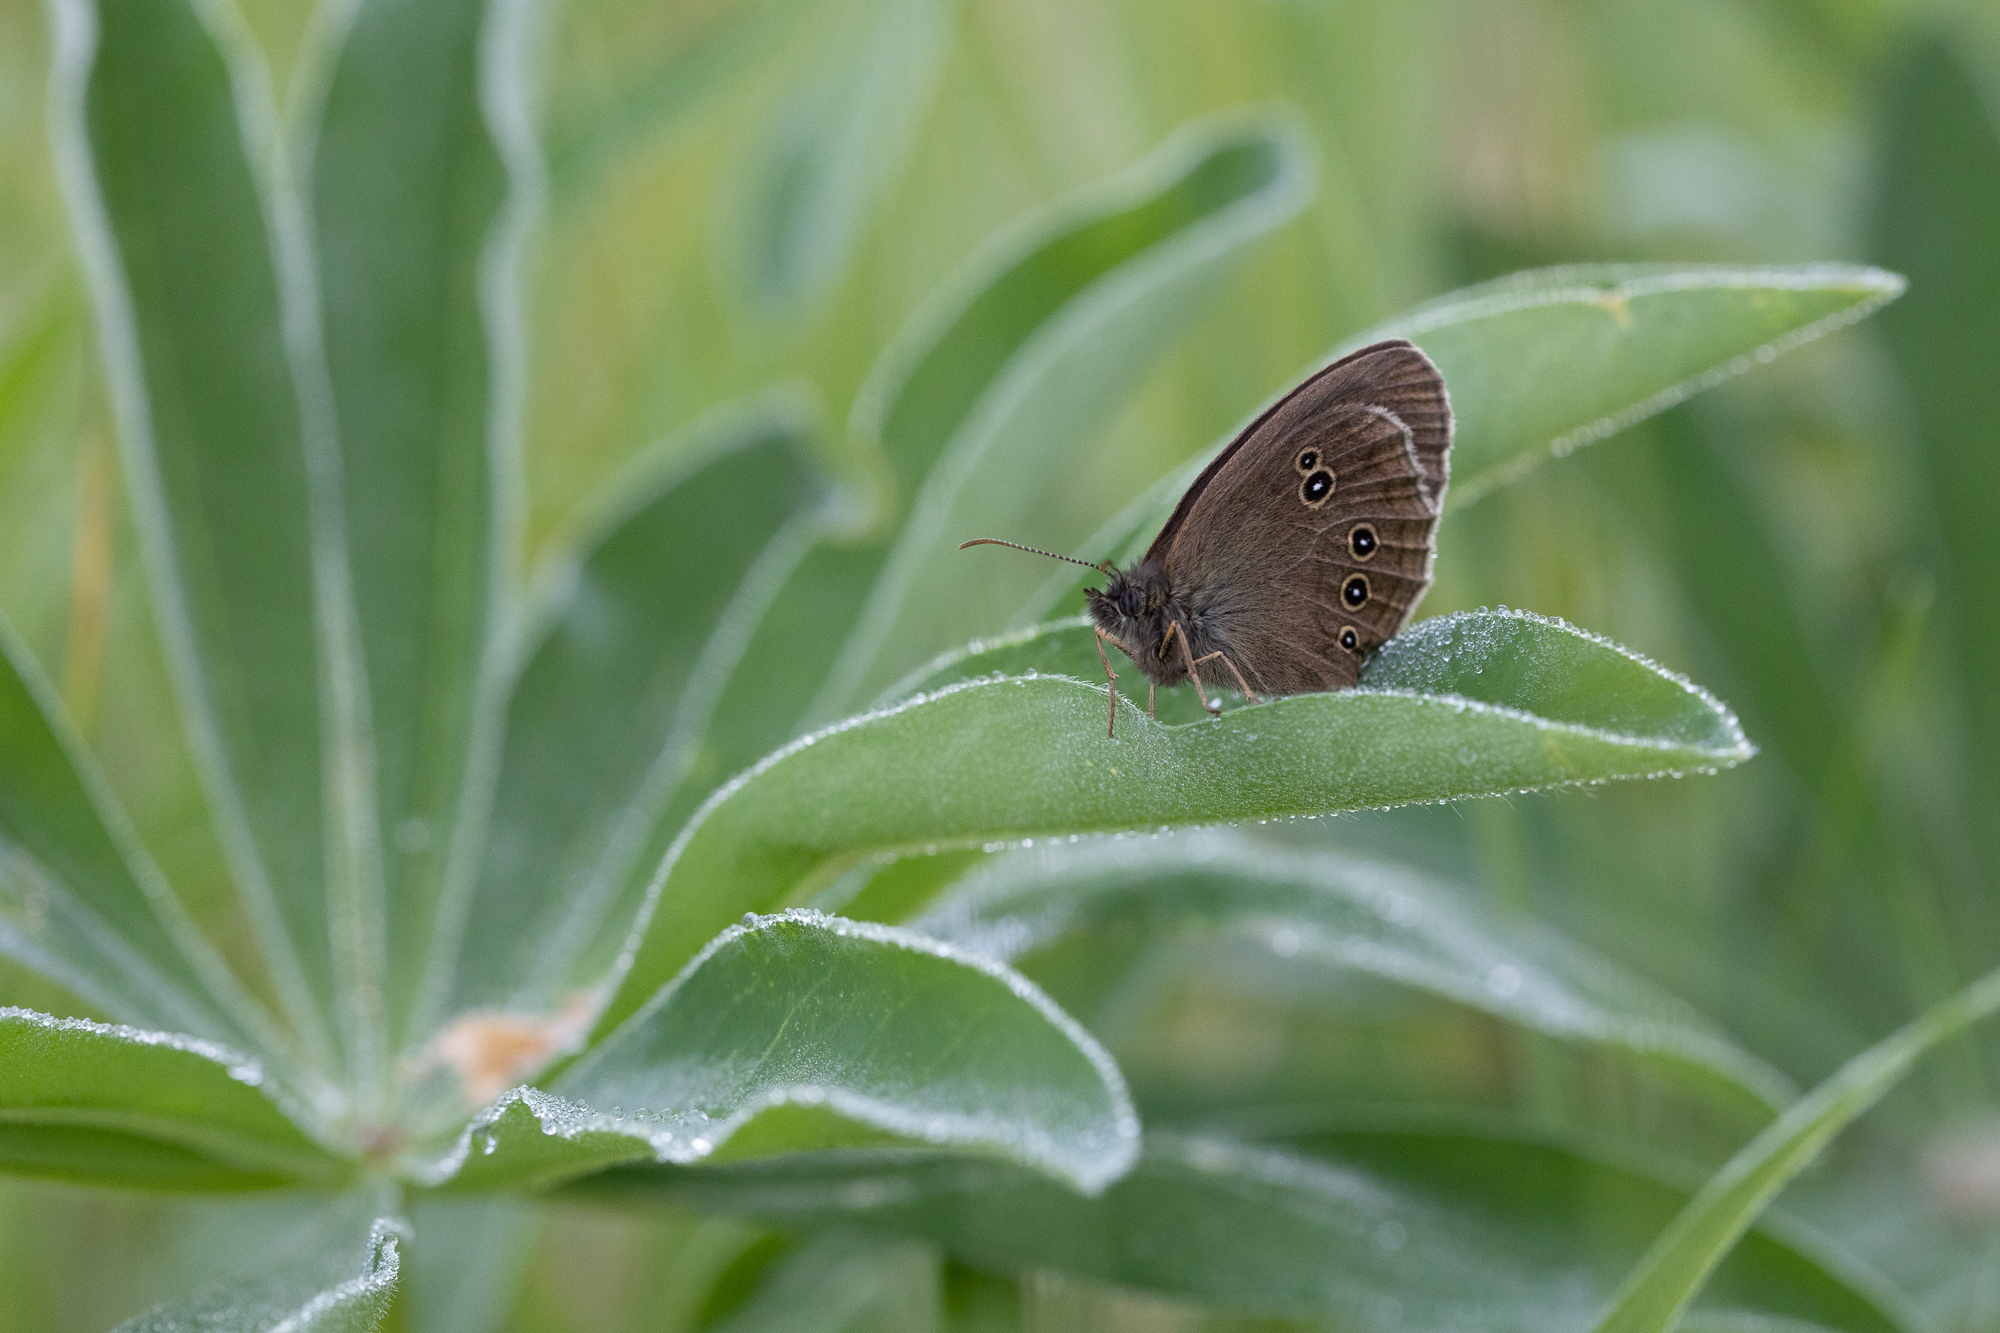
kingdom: Animalia
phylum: Arthropoda
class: Insecta
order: Lepidoptera
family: Nymphalidae
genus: Aphantopus
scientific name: Aphantopus hyperantus
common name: Ringlet
